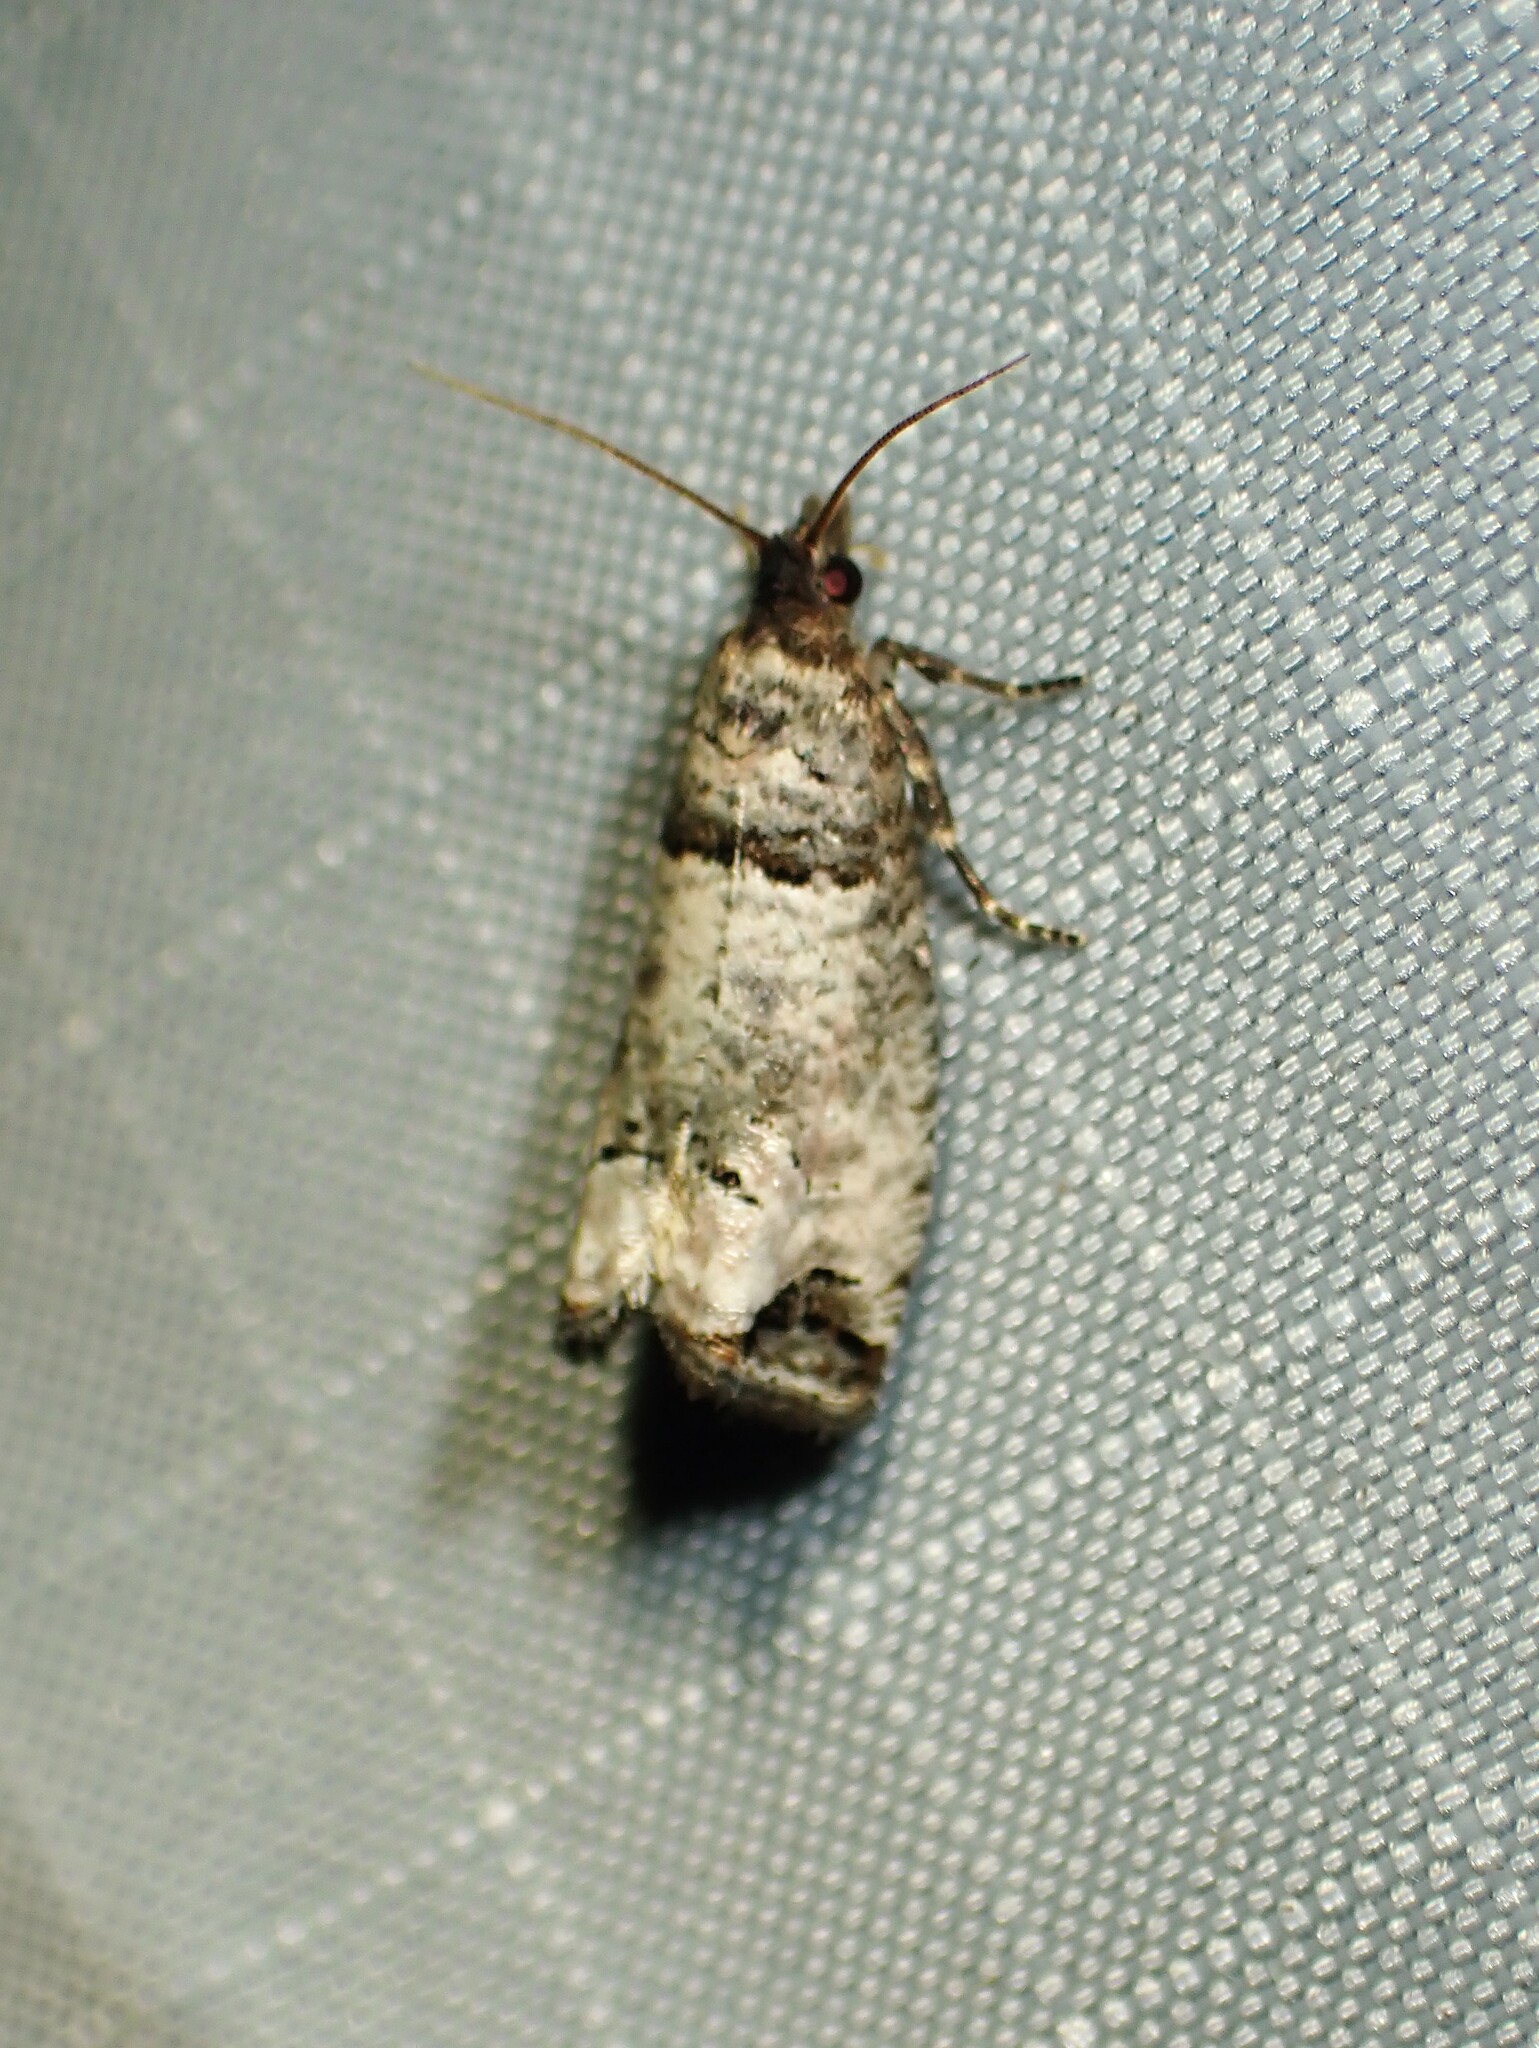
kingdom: Animalia
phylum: Arthropoda
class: Insecta
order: Lepidoptera
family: Tortricidae
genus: Notocelia
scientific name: Notocelia culminana
